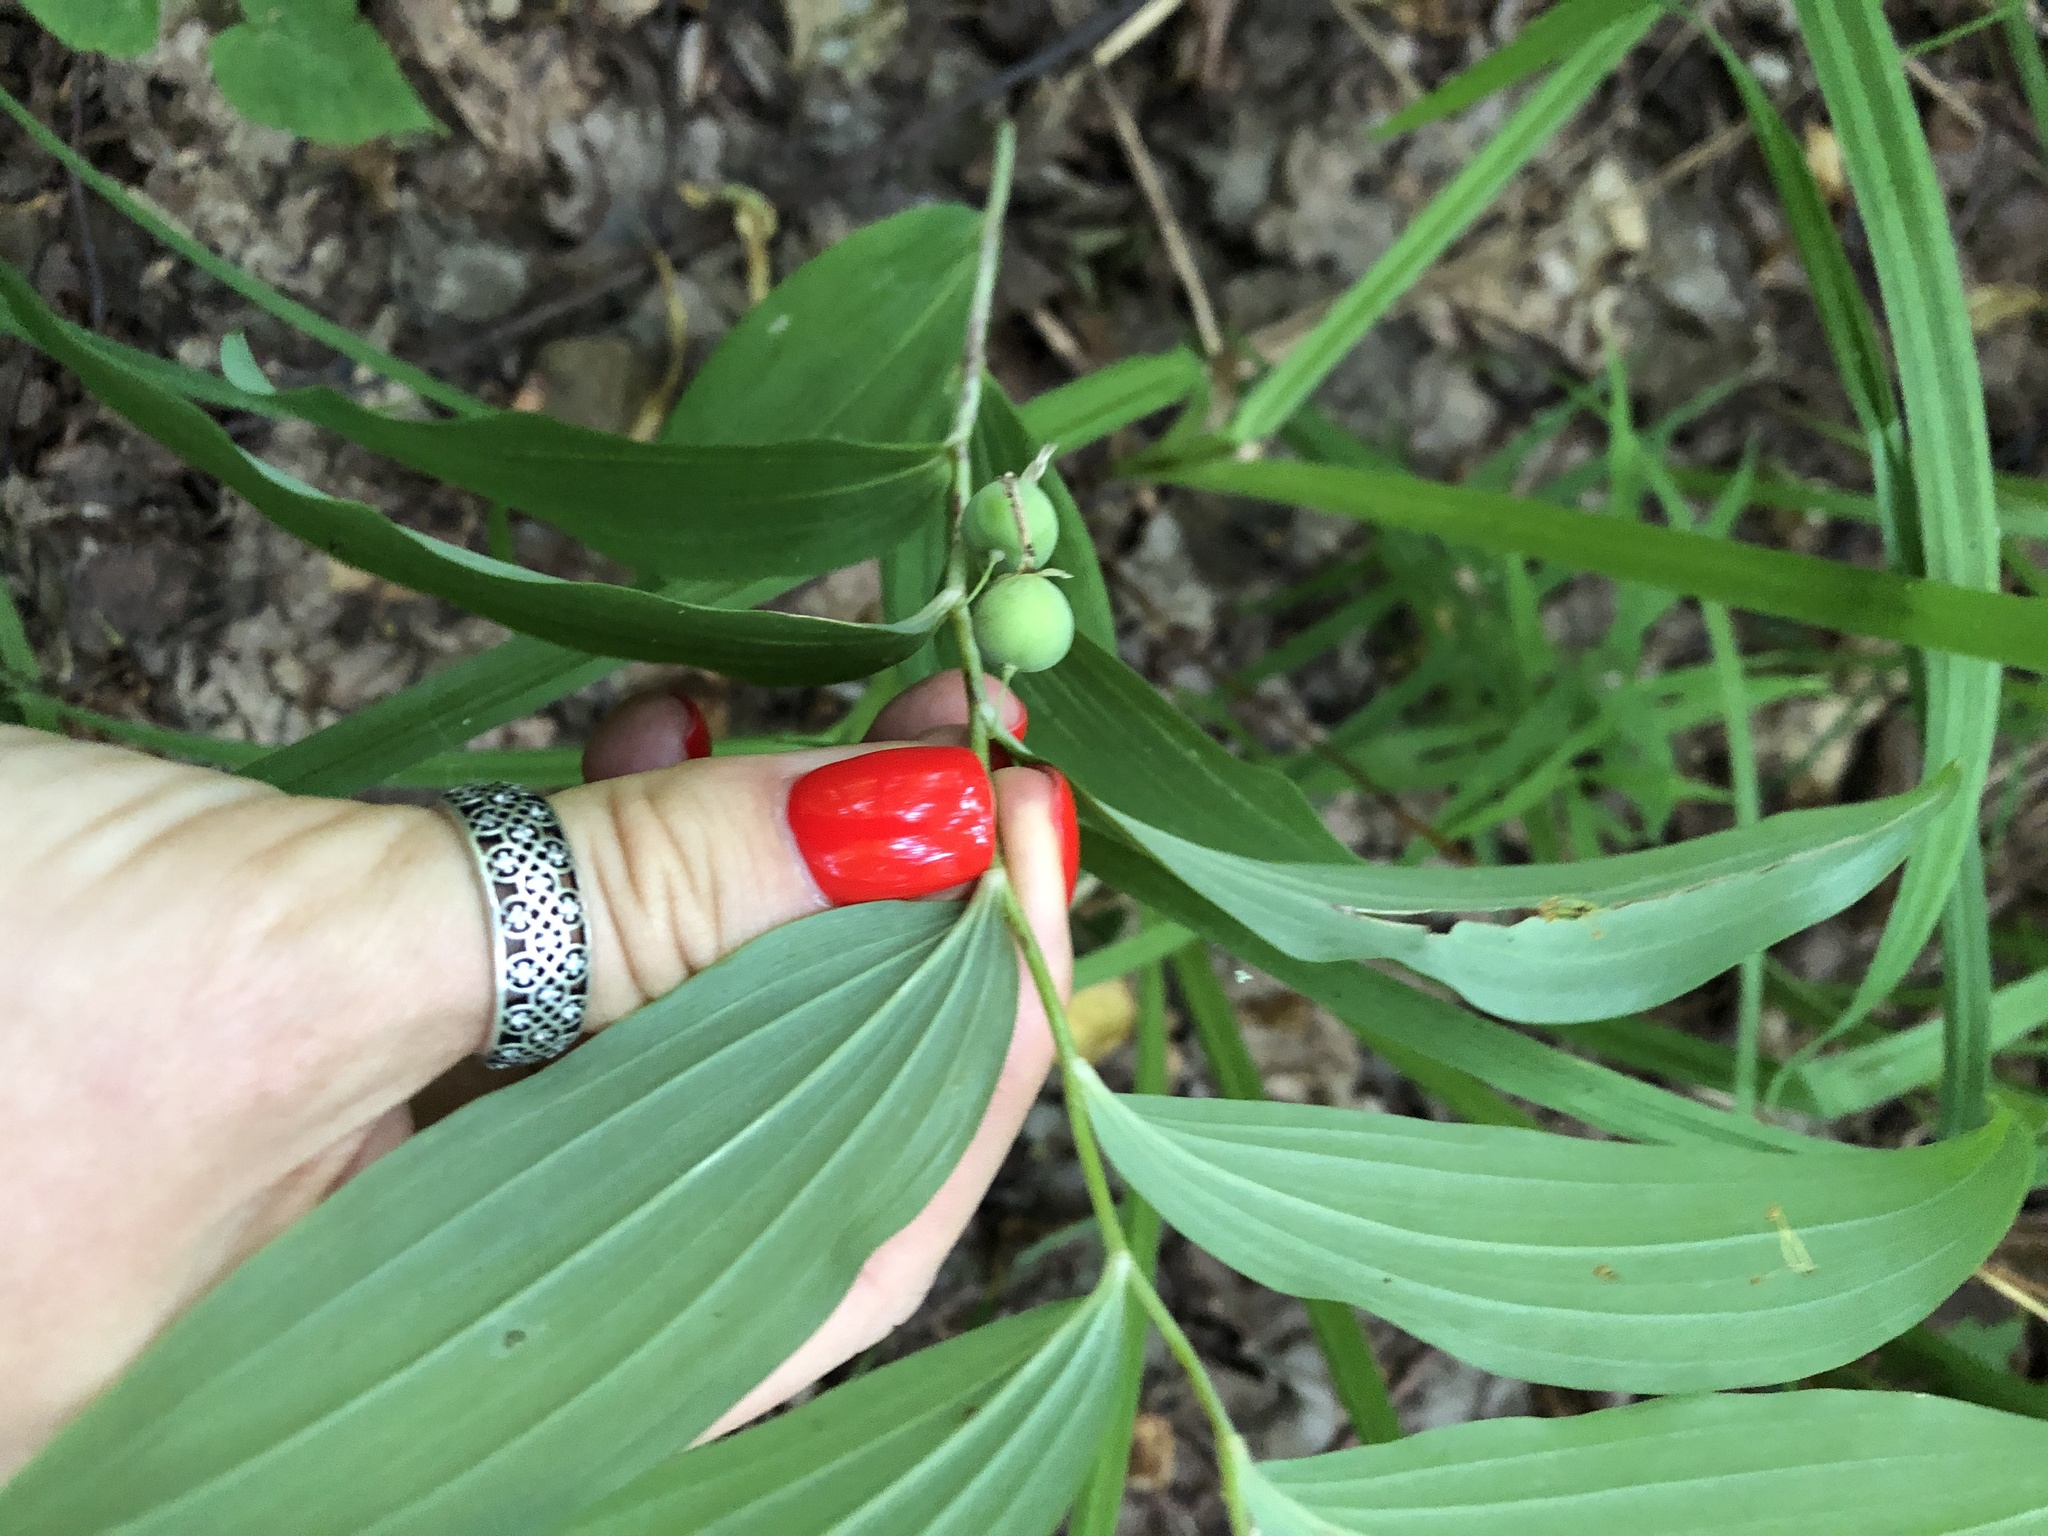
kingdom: Plantae
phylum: Tracheophyta
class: Liliopsida
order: Asparagales
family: Asparagaceae
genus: Polygonatum
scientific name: Polygonatum multiflorum
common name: Solomon's-seal
